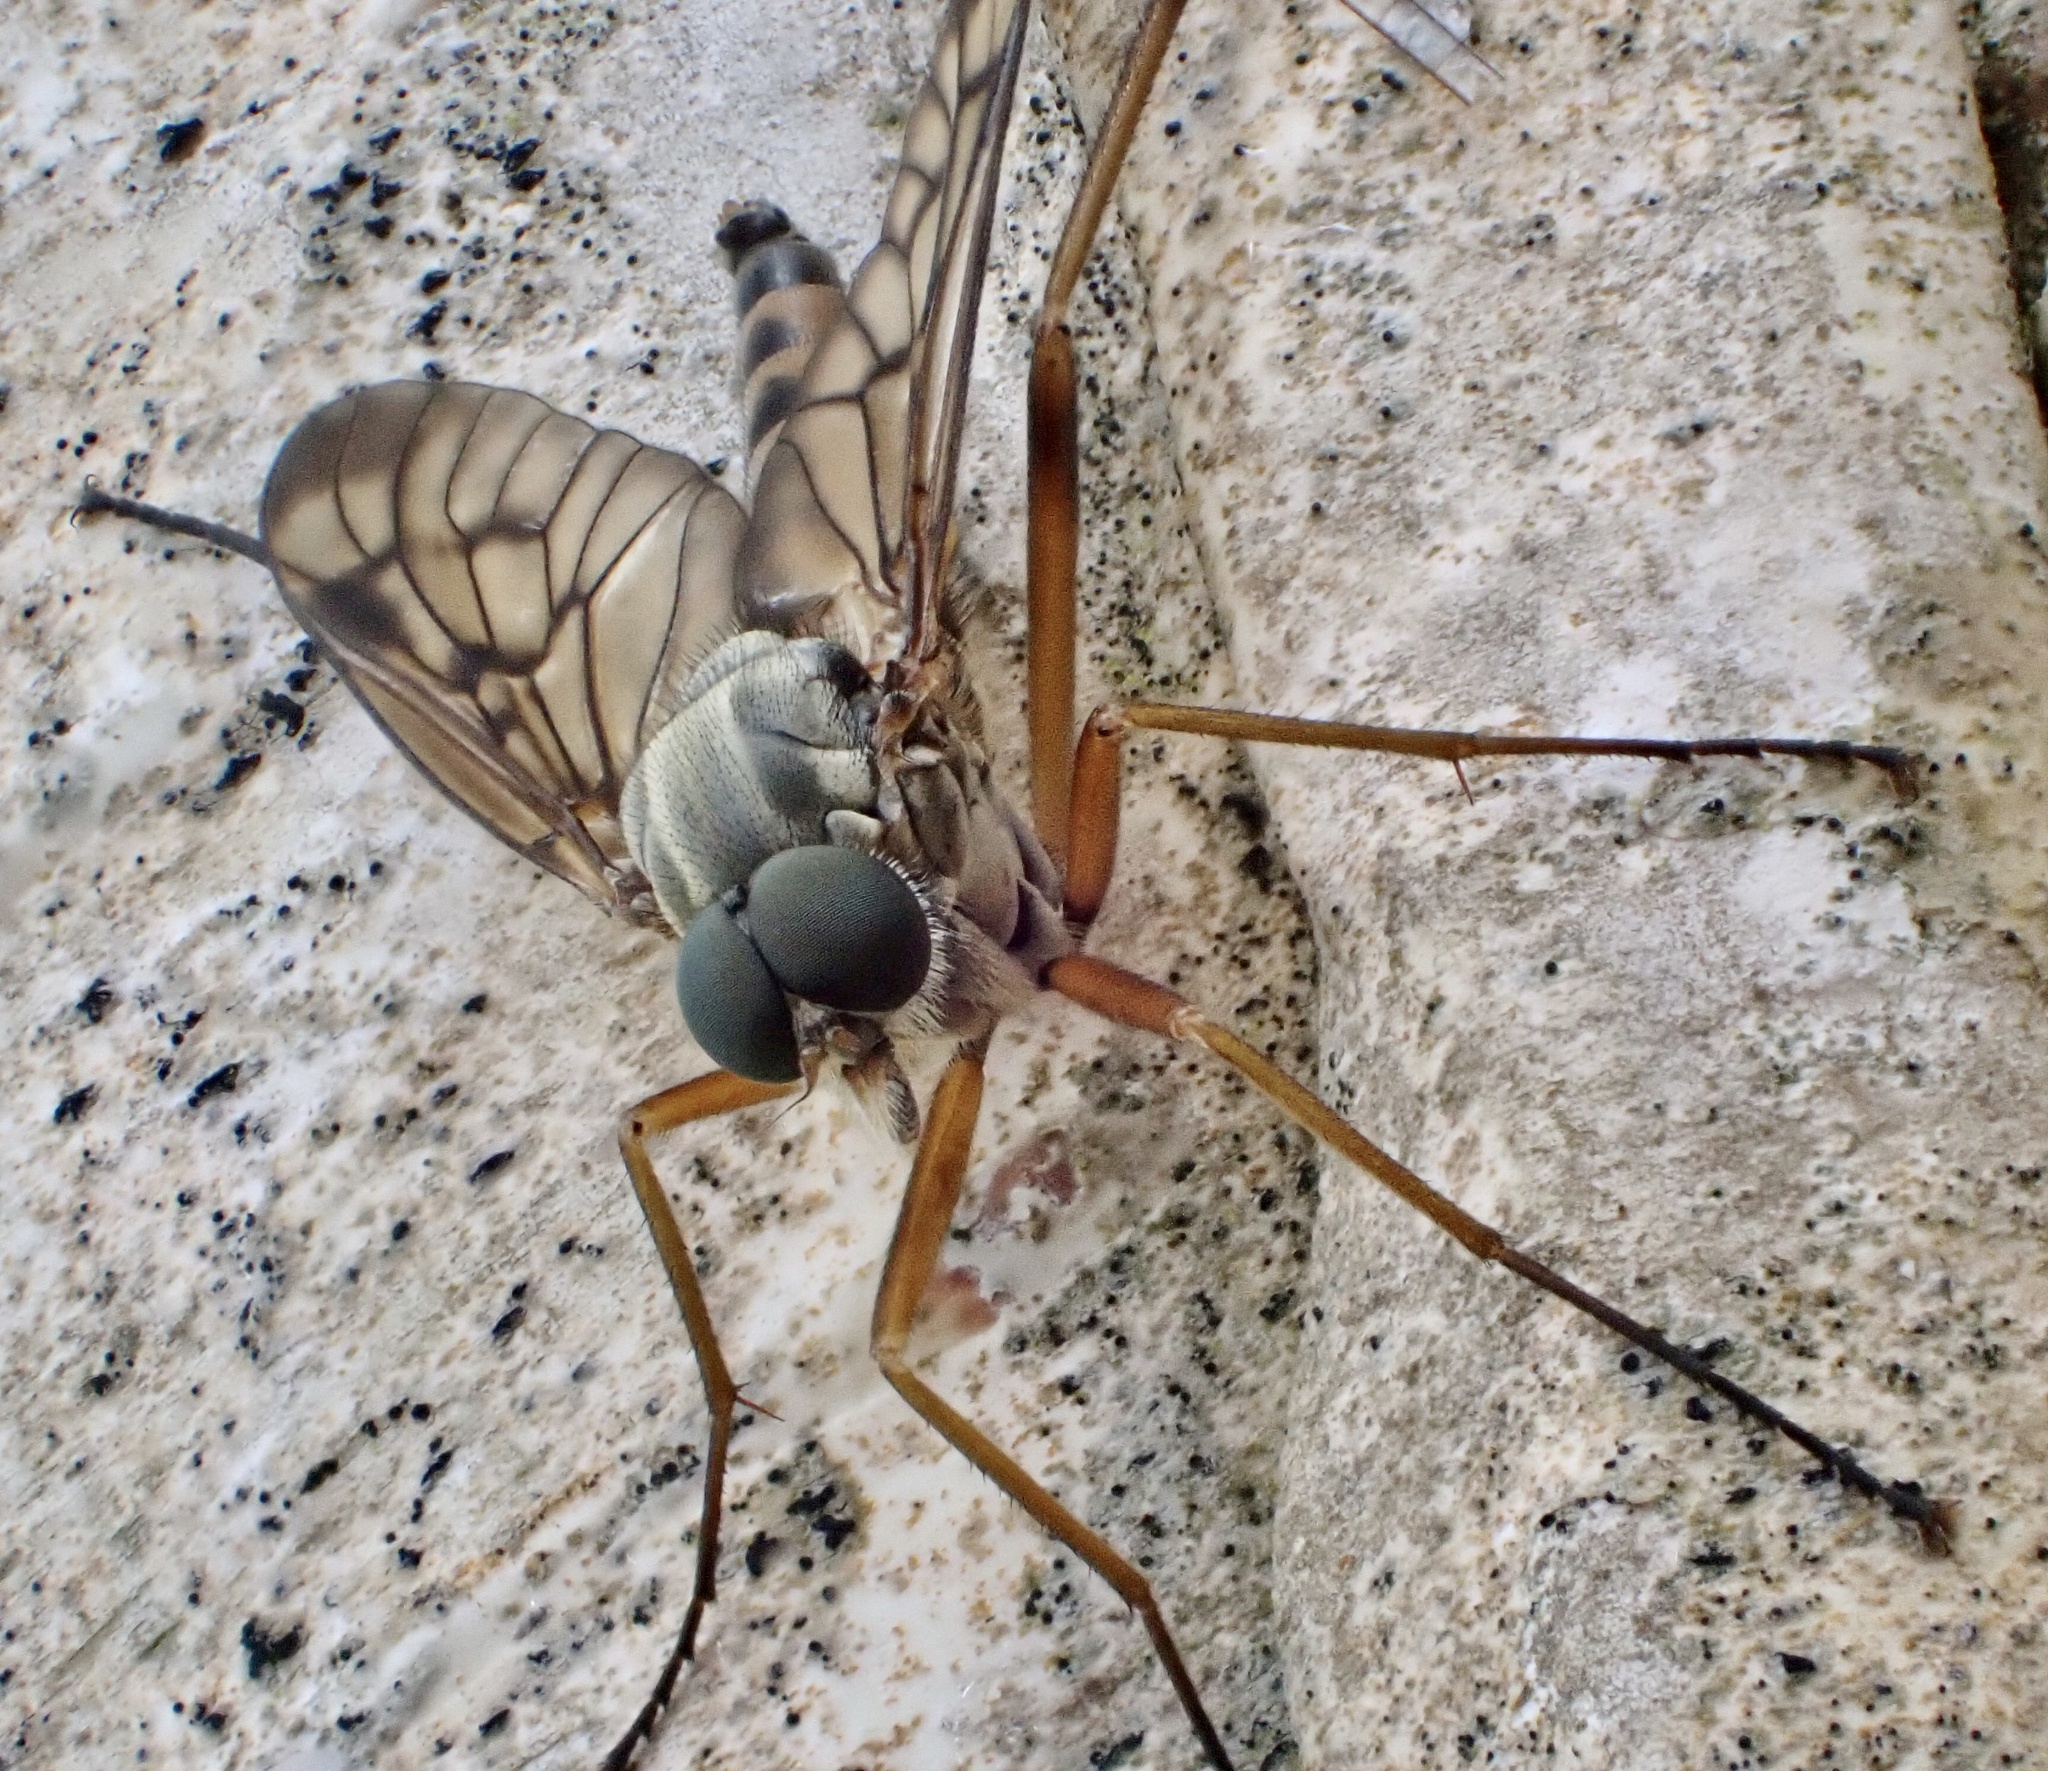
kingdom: Animalia
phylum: Arthropoda
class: Insecta
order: Diptera
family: Rhagionidae
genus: Rhagio
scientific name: Rhagio scolopacea
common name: Downlooker snipefly
